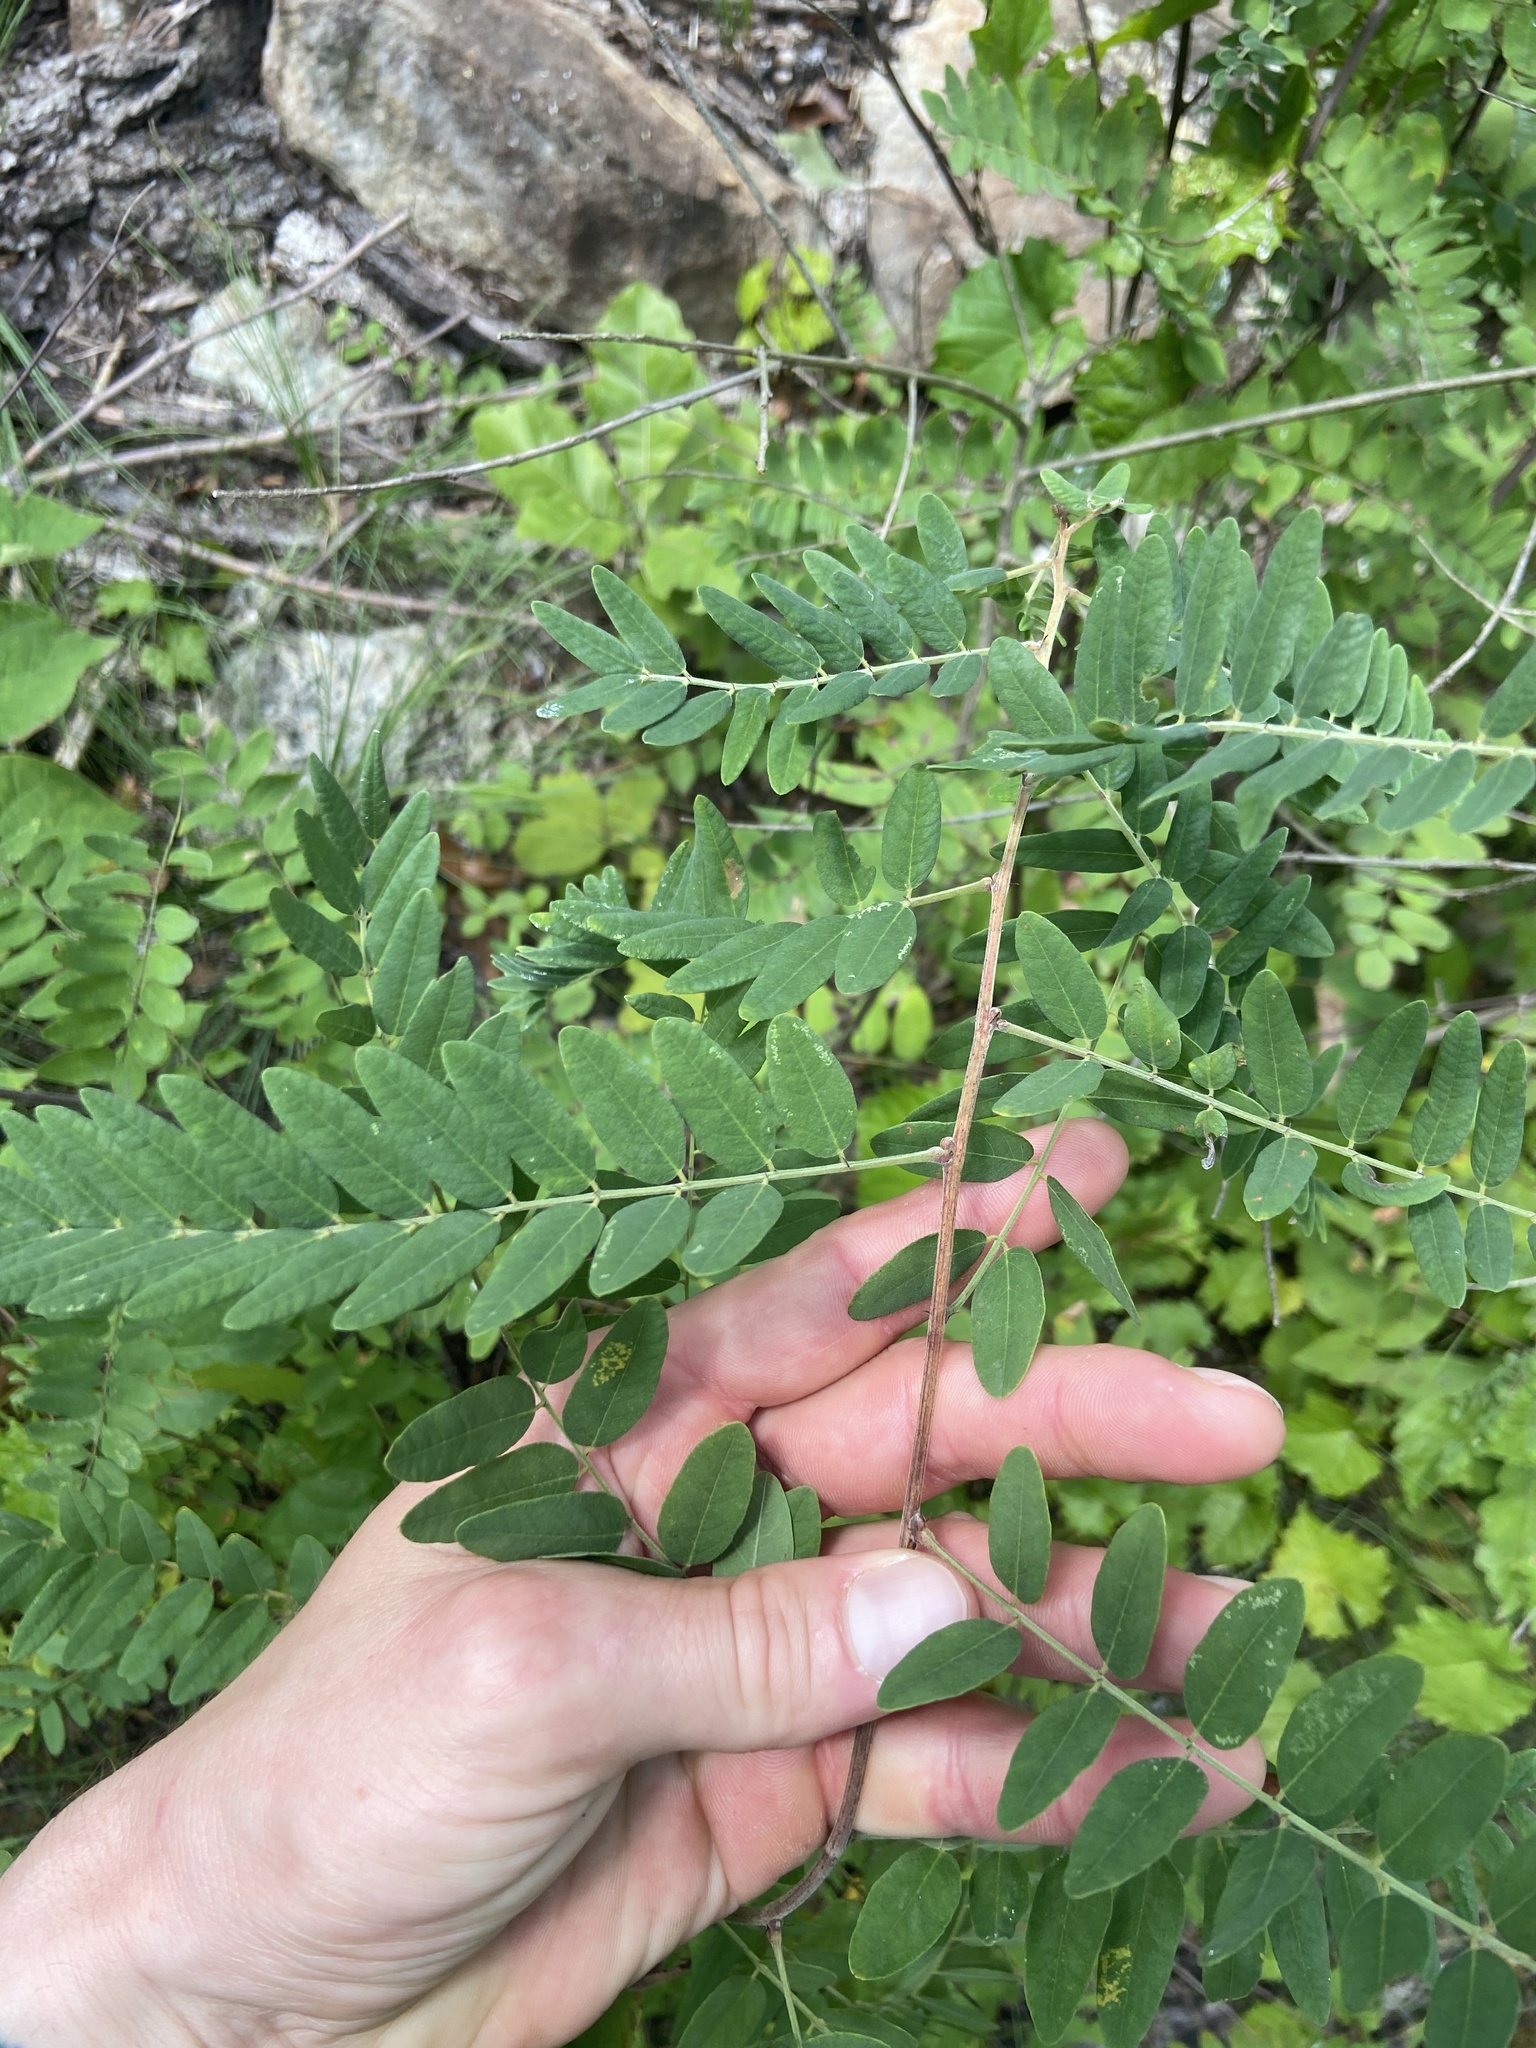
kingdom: Plantae
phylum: Tracheophyta
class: Magnoliopsida
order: Fabales
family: Fabaceae
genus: Amorpha
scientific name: Amorpha schwerinii
